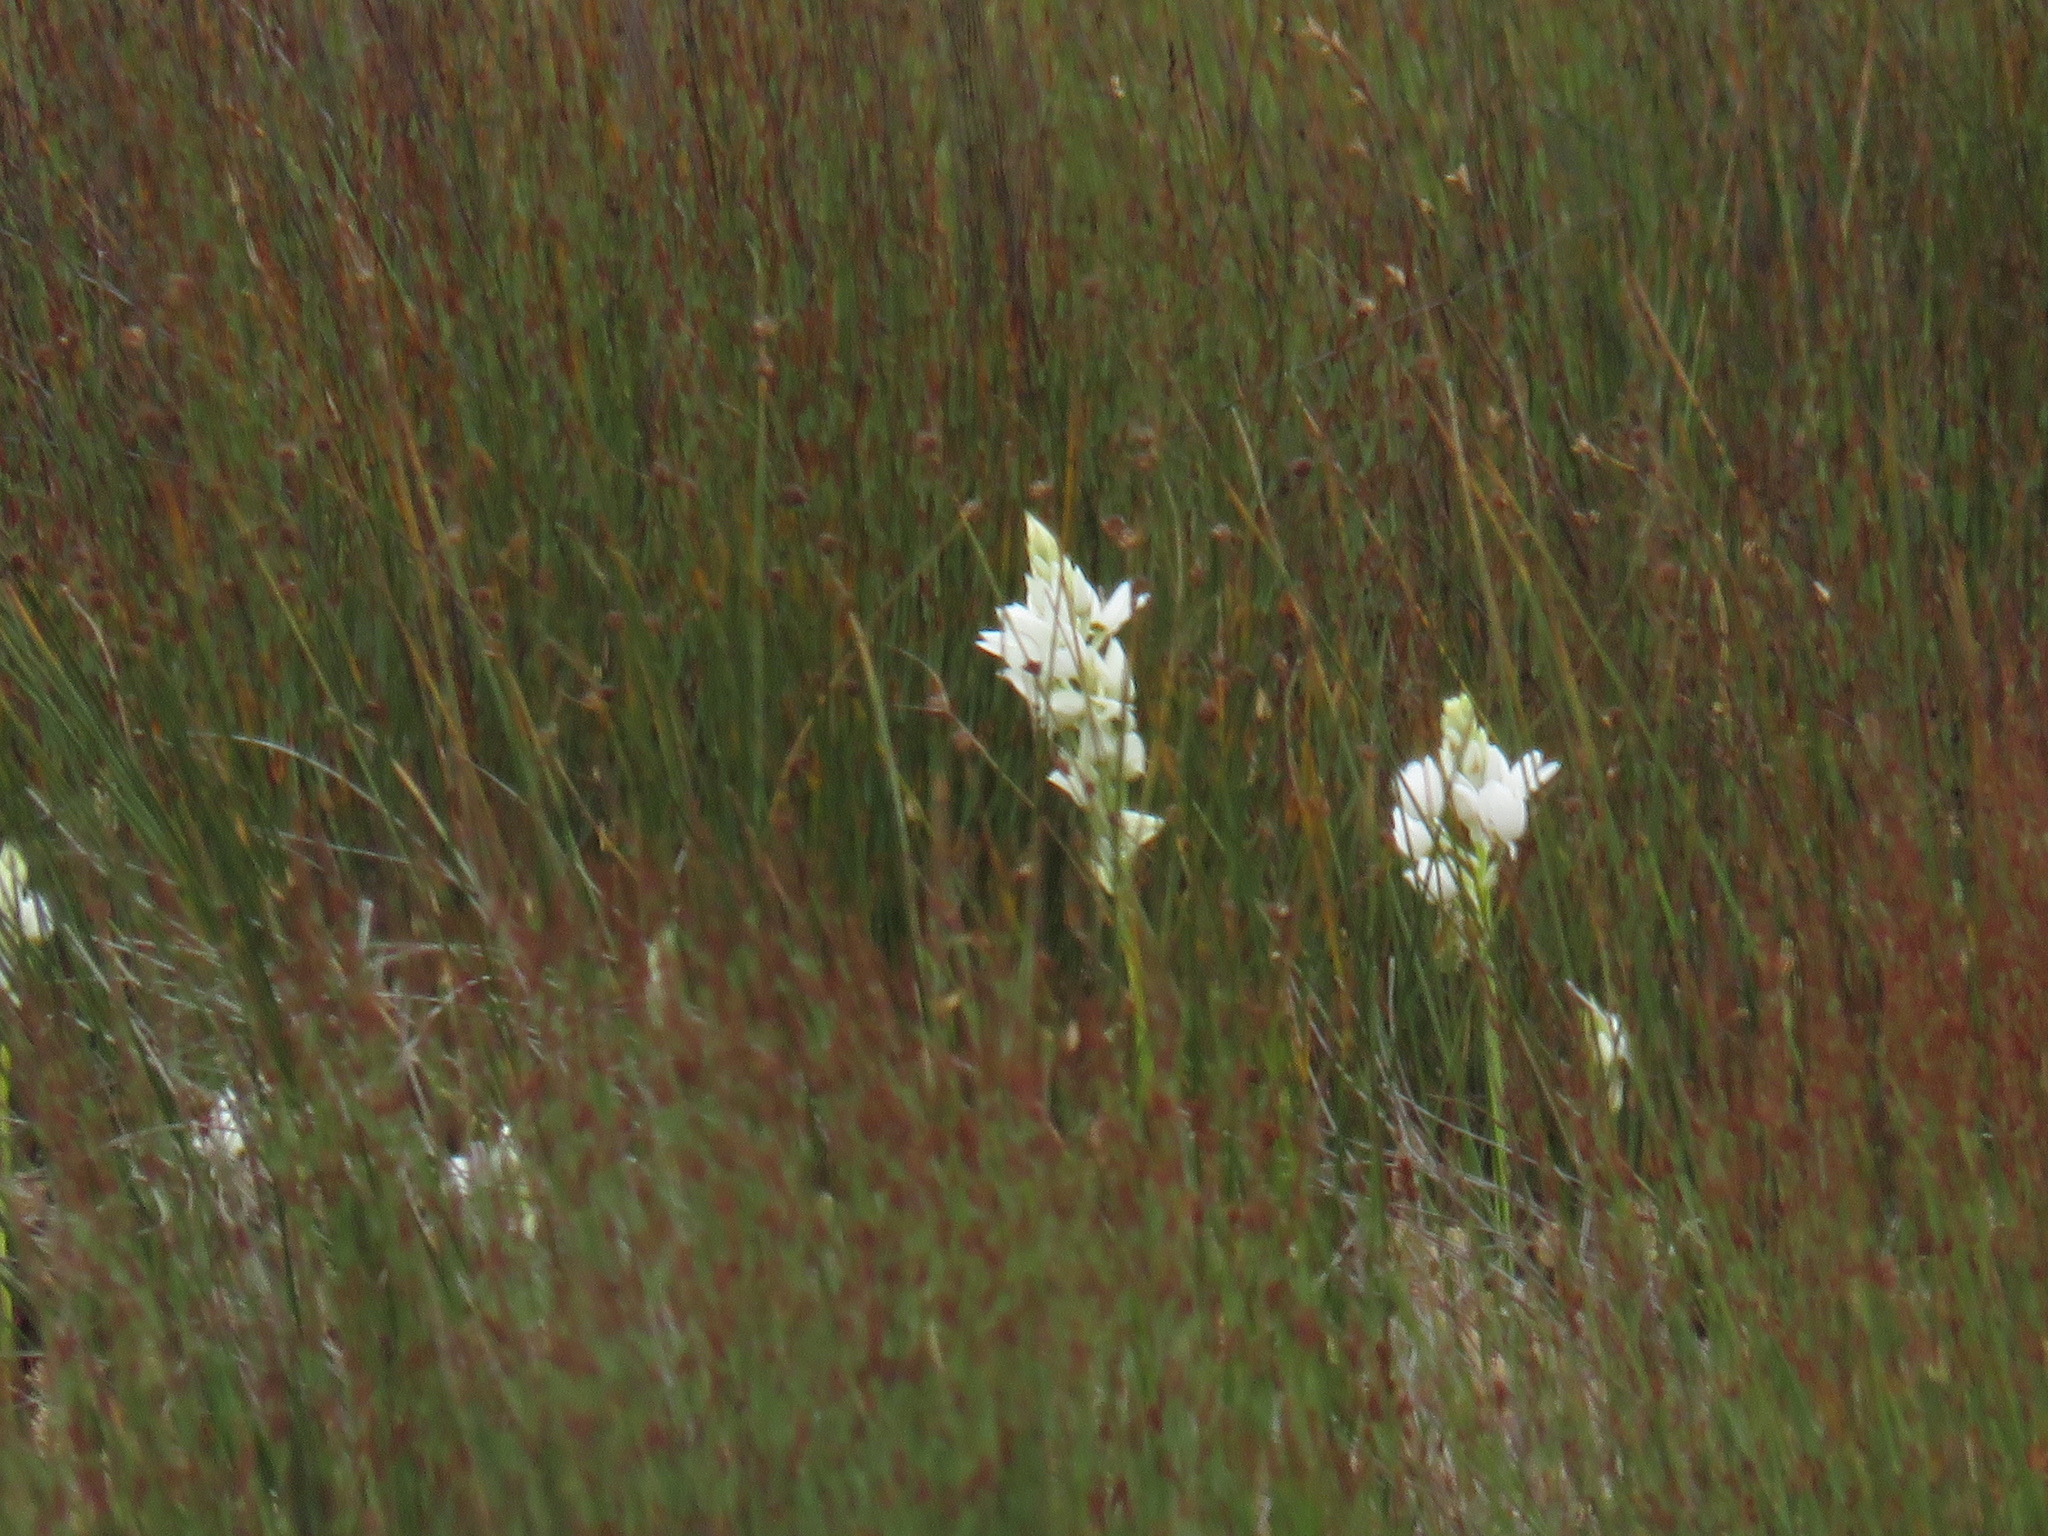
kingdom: Plantae
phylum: Tracheophyta
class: Liliopsida
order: Asparagales
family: Asparagaceae
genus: Ornithogalum
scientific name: Ornithogalum thyrsoides
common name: Chincherinchee
